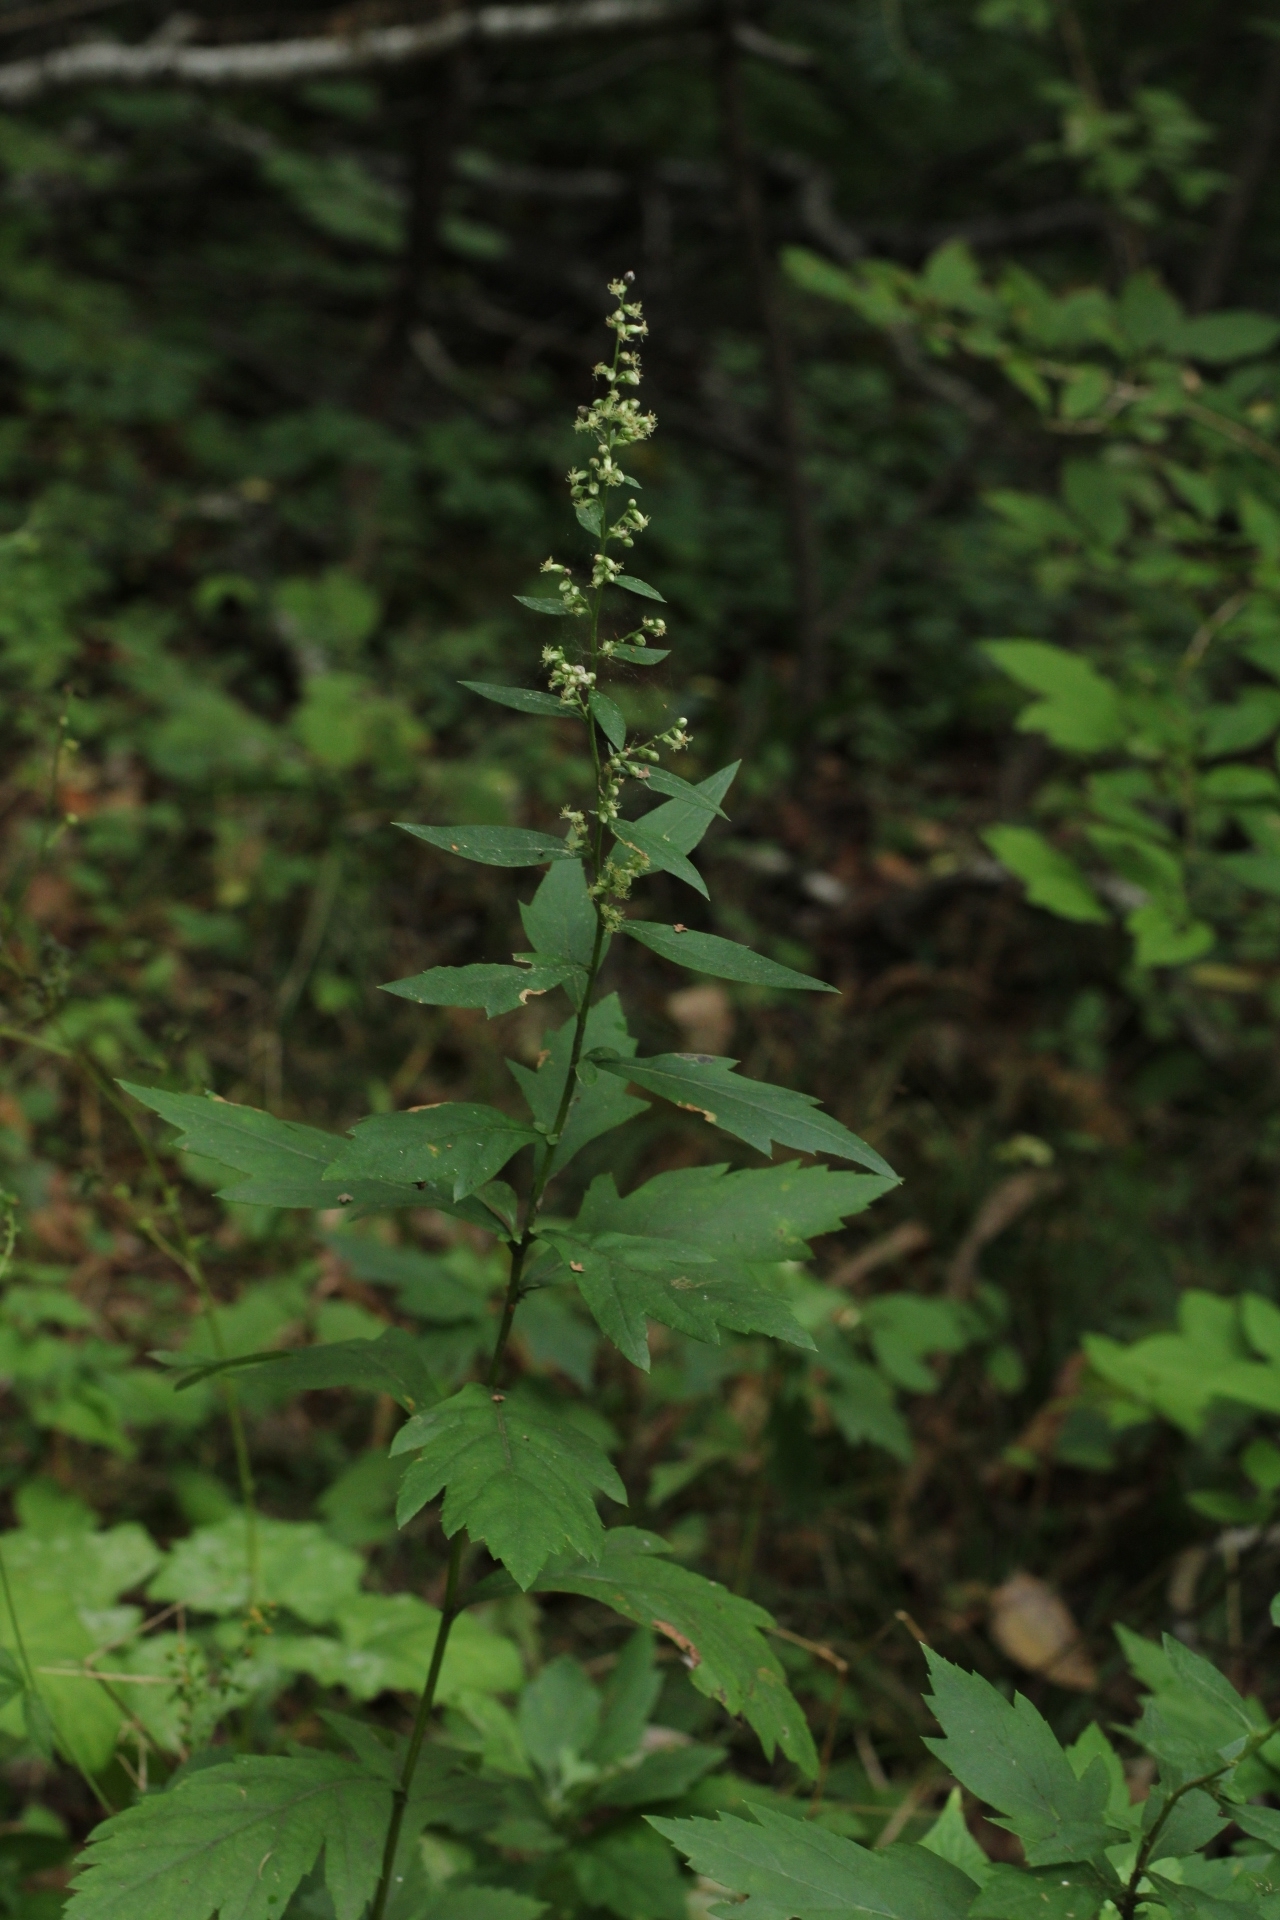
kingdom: Plantae
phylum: Tracheophyta
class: Magnoliopsida
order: Asterales
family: Asteraceae
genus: Artemisia
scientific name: Artemisia stolonifera
